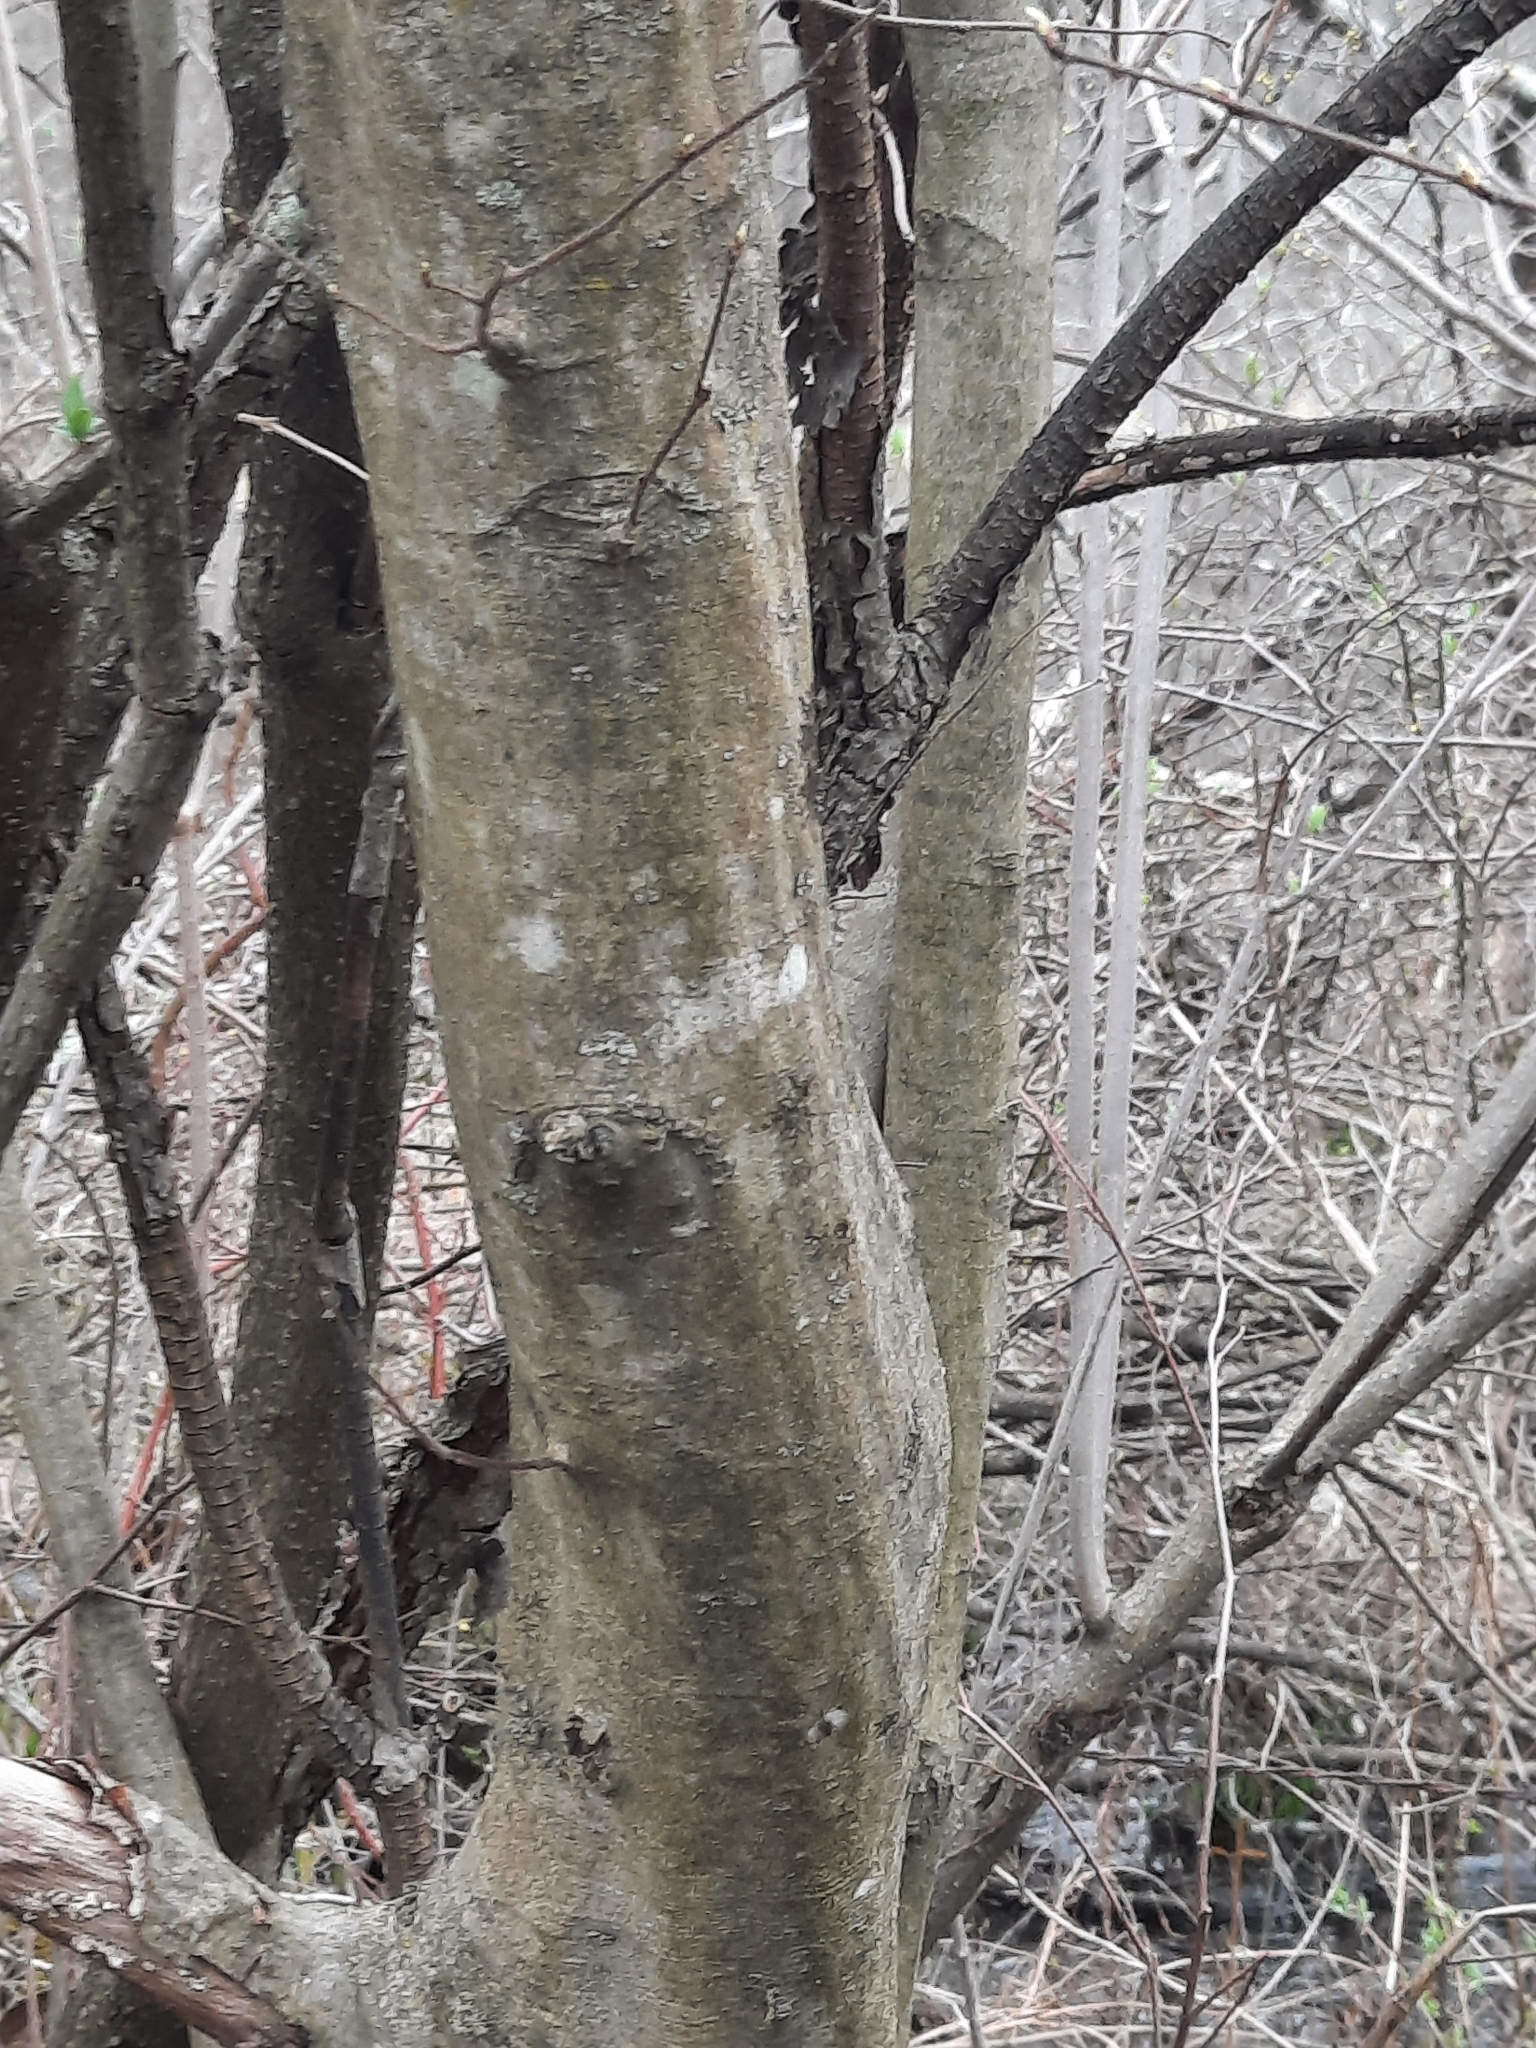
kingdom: Plantae
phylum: Tracheophyta
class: Magnoliopsida
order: Fagales
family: Betulaceae
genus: Carpinus
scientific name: Carpinus caroliniana
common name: American hornbeam
